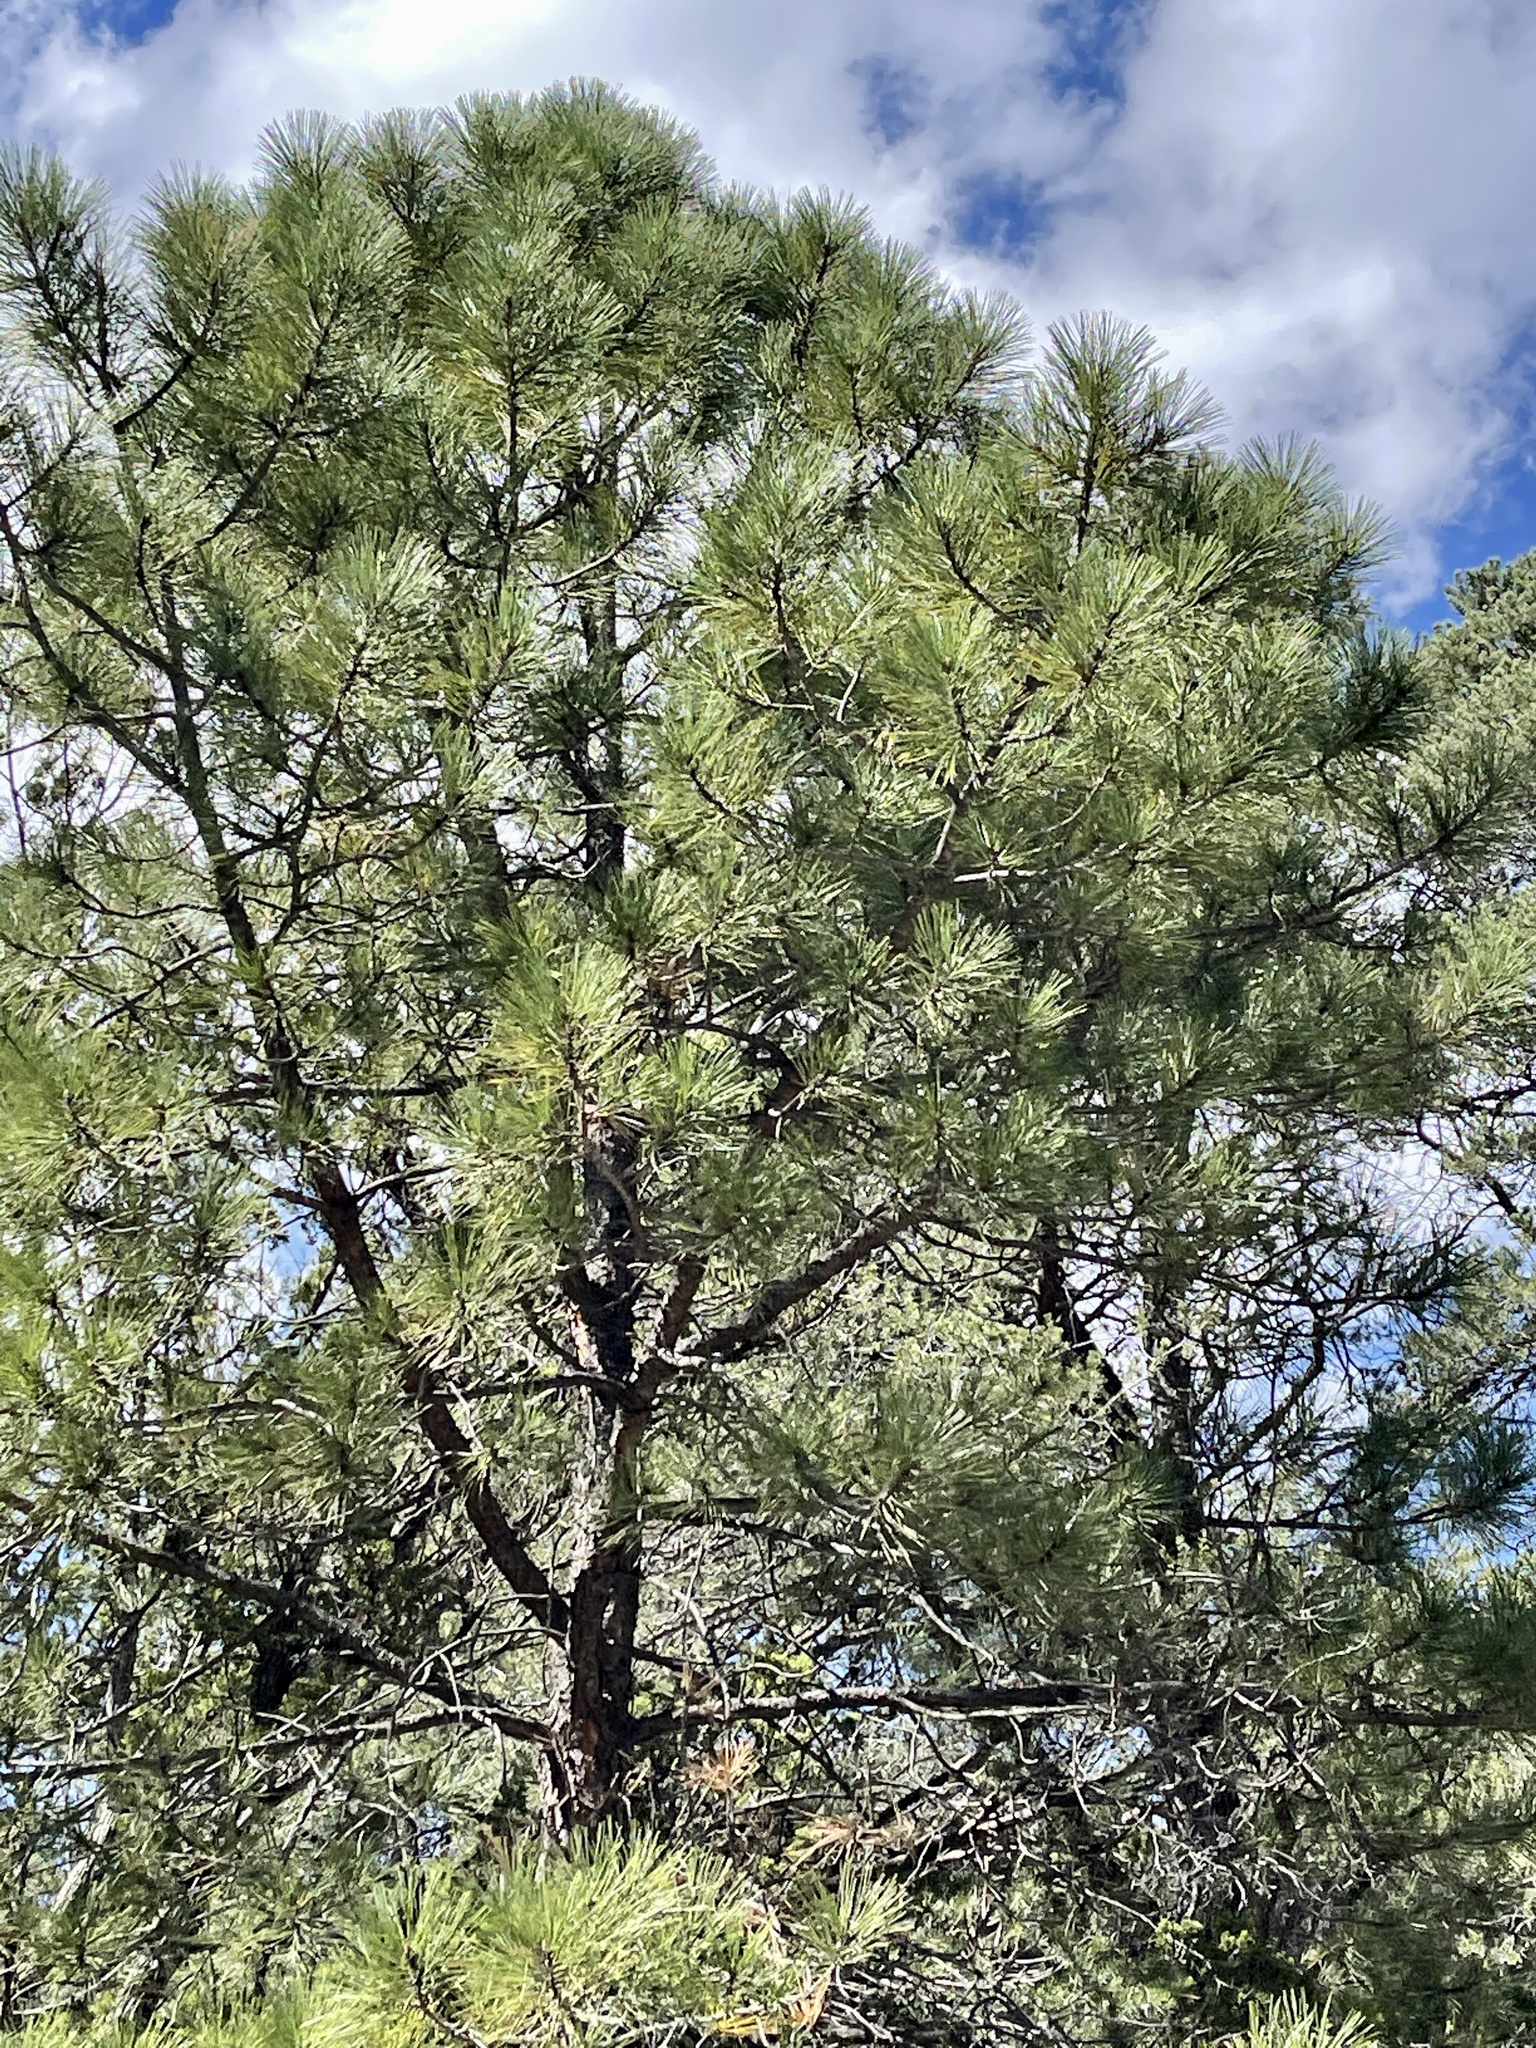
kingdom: Plantae
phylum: Tracheophyta
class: Pinopsida
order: Pinales
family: Pinaceae
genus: Pinus
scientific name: Pinus ponderosa
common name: Western yellow-pine
